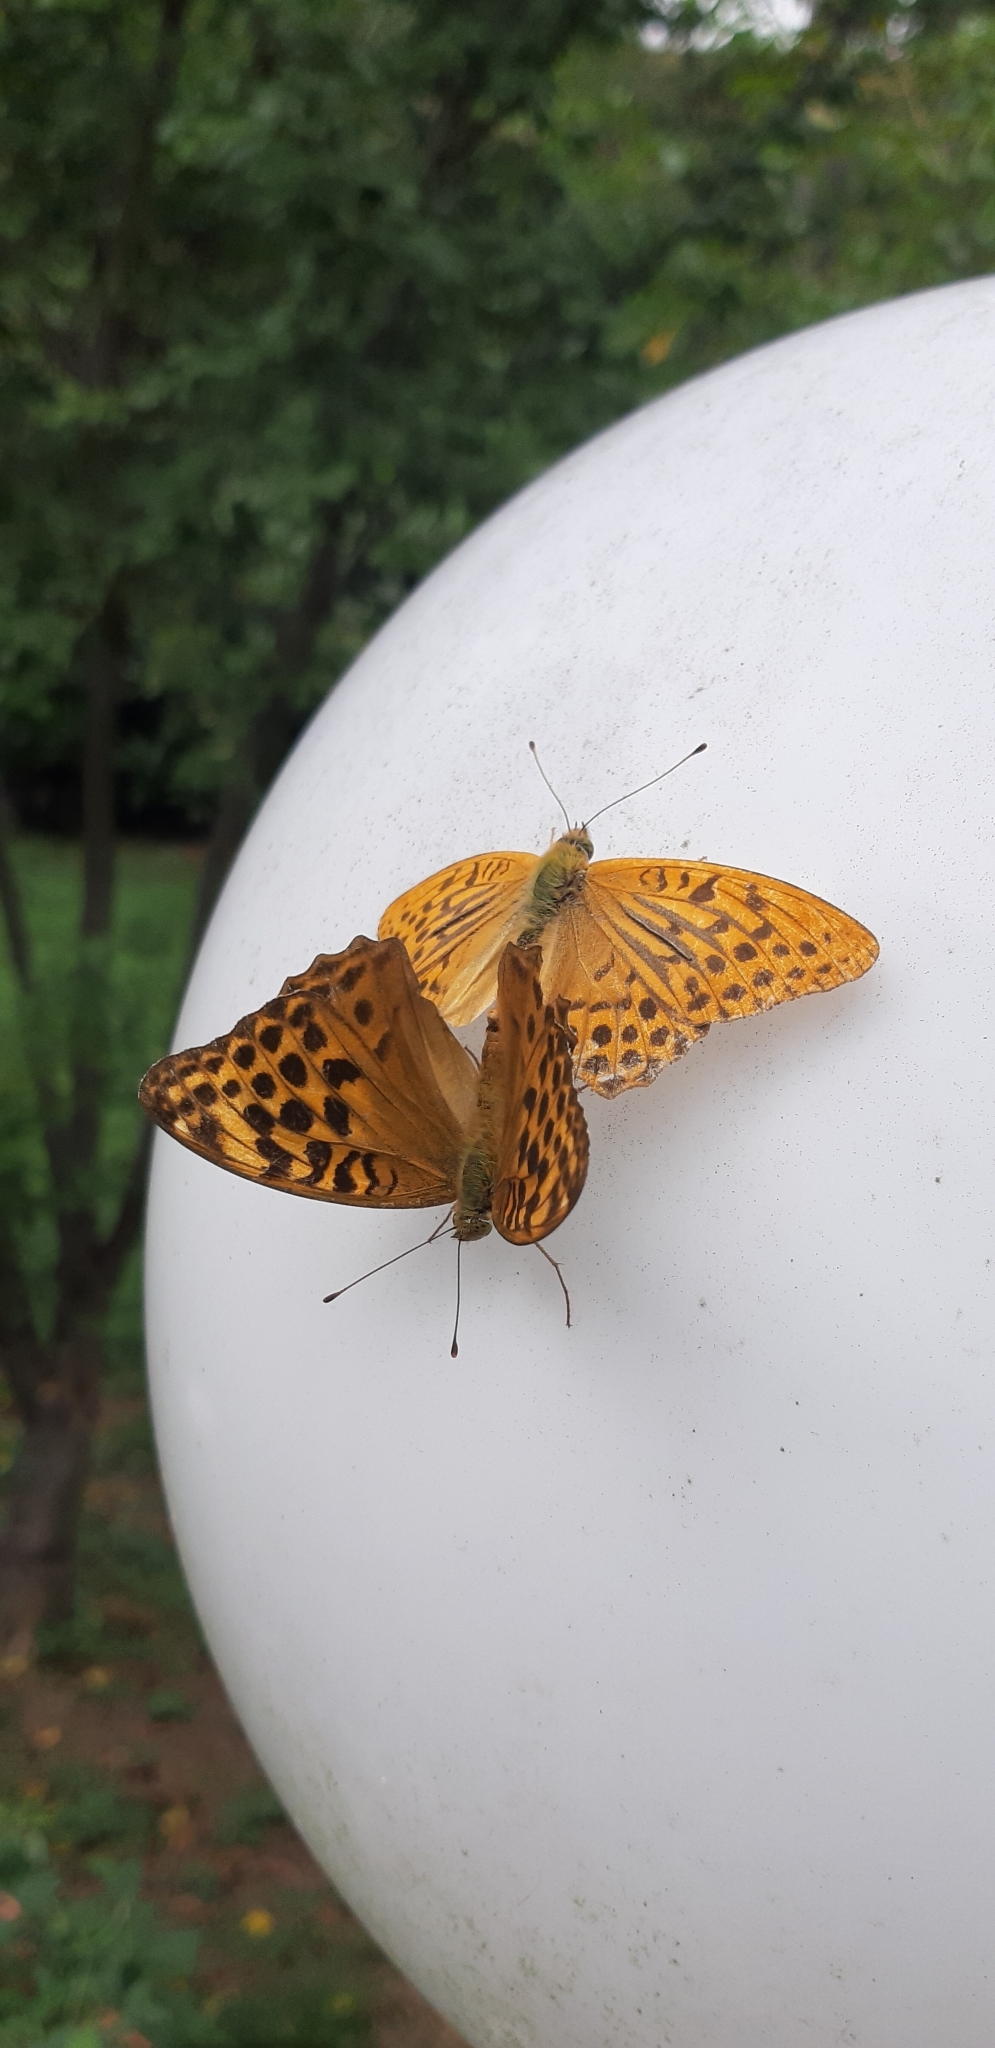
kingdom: Animalia
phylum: Arthropoda
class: Insecta
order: Lepidoptera
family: Nymphalidae
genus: Argynnis
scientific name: Argynnis paphia
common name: Silver-washed fritillary
